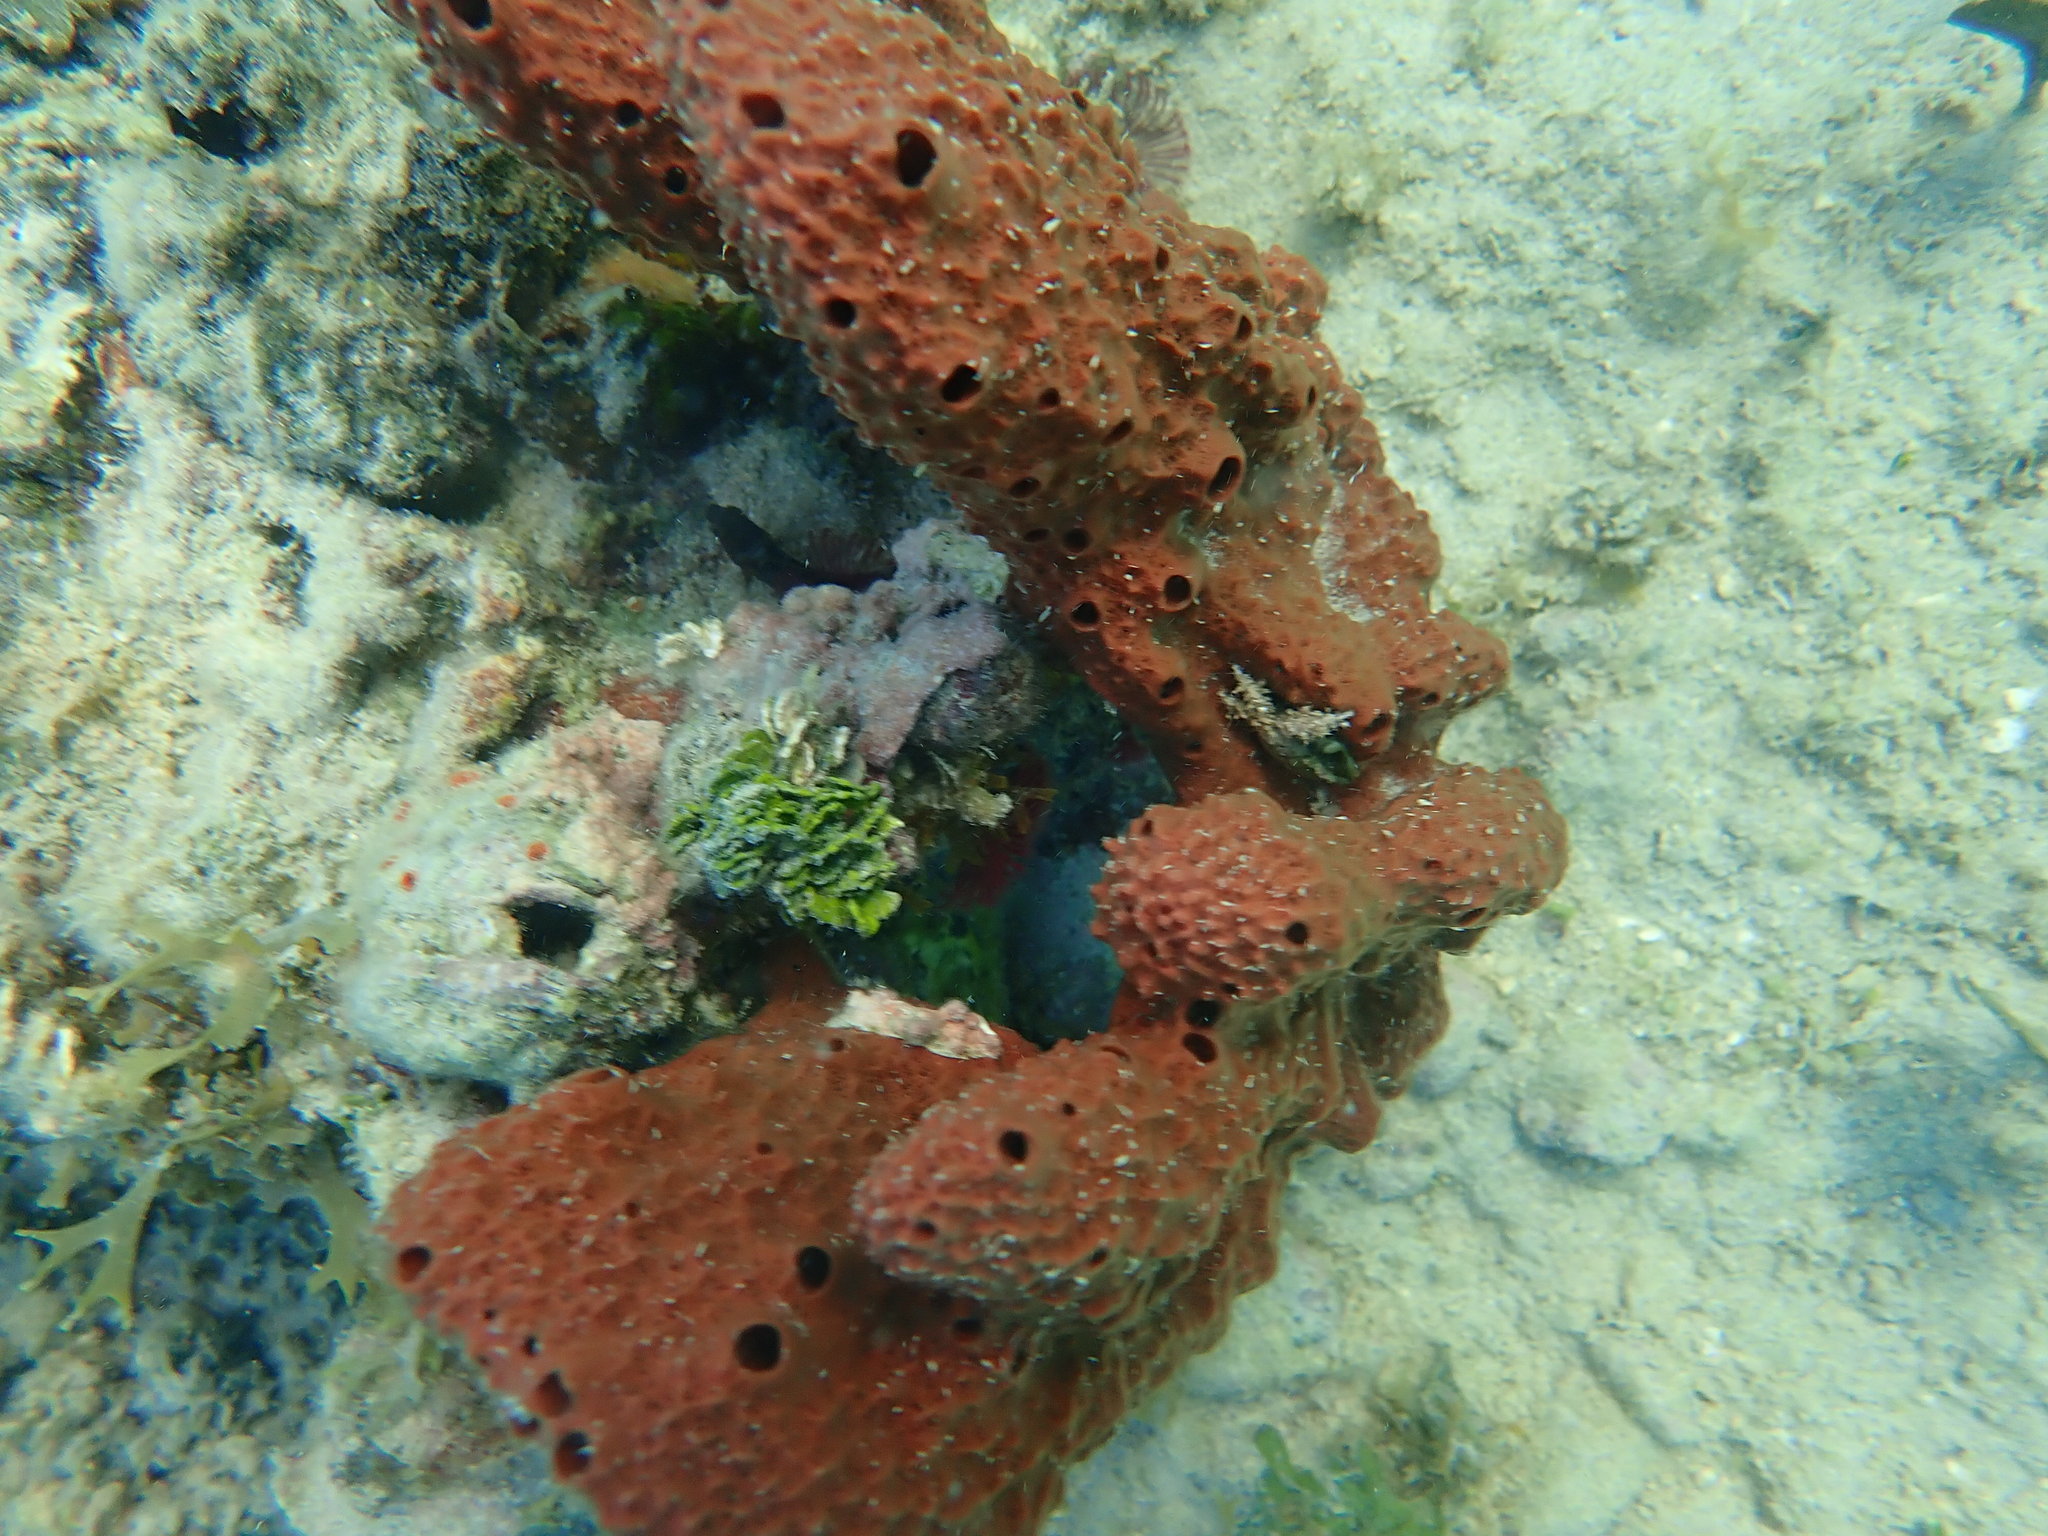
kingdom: Animalia
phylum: Porifera
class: Demospongiae
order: Haplosclerida
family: Niphatidae
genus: Amphimedon
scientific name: Amphimedon compressa
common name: Red sponge
